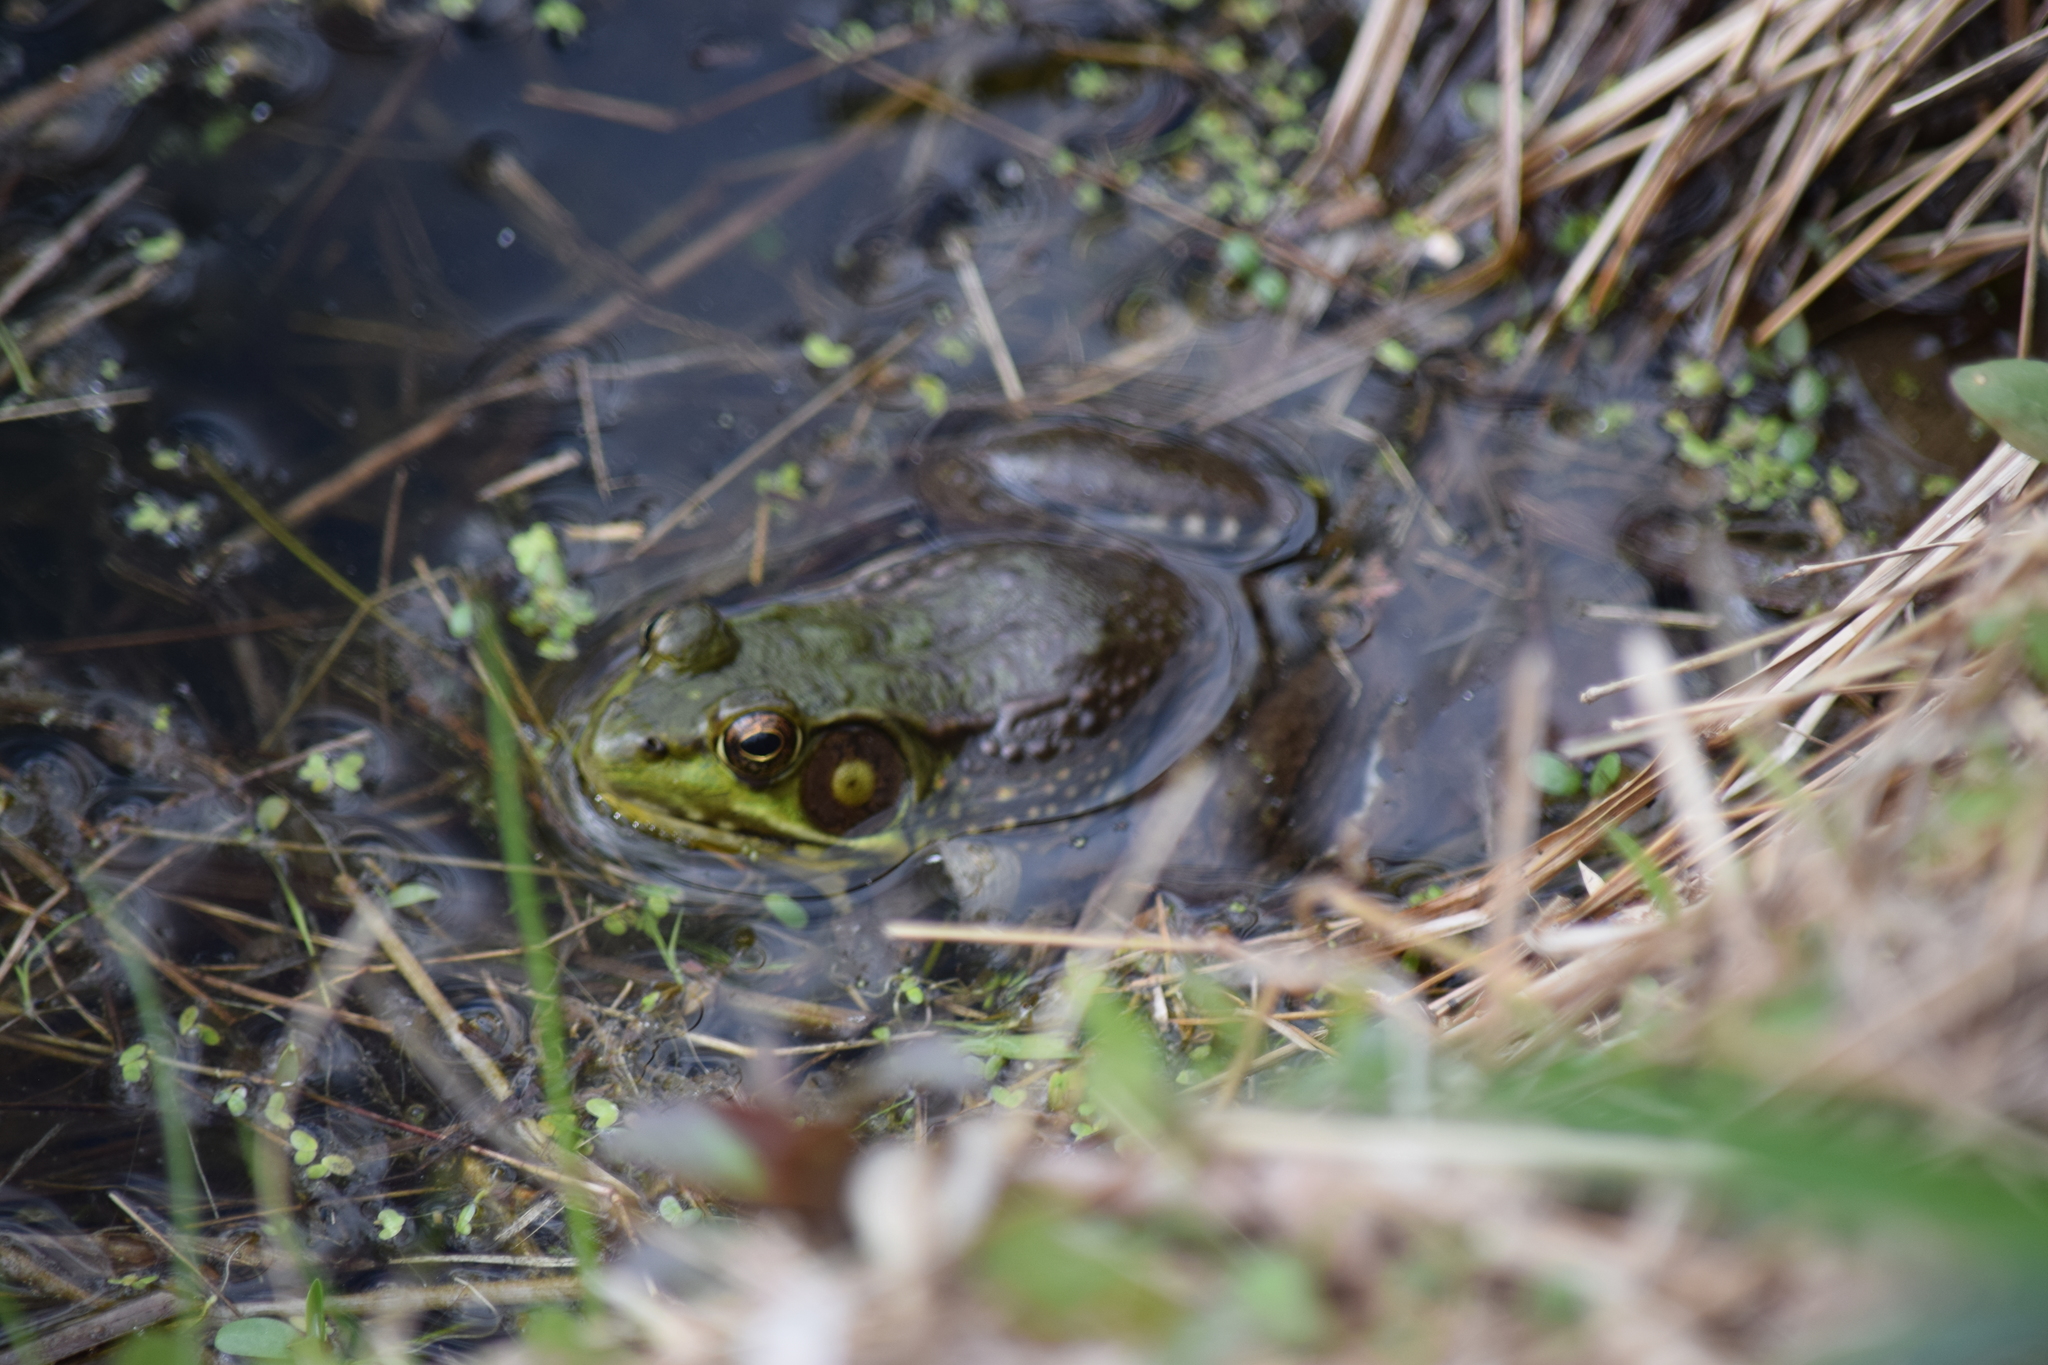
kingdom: Animalia
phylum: Chordata
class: Amphibia
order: Anura
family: Ranidae
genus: Lithobates
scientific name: Lithobates clamitans
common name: Green frog
